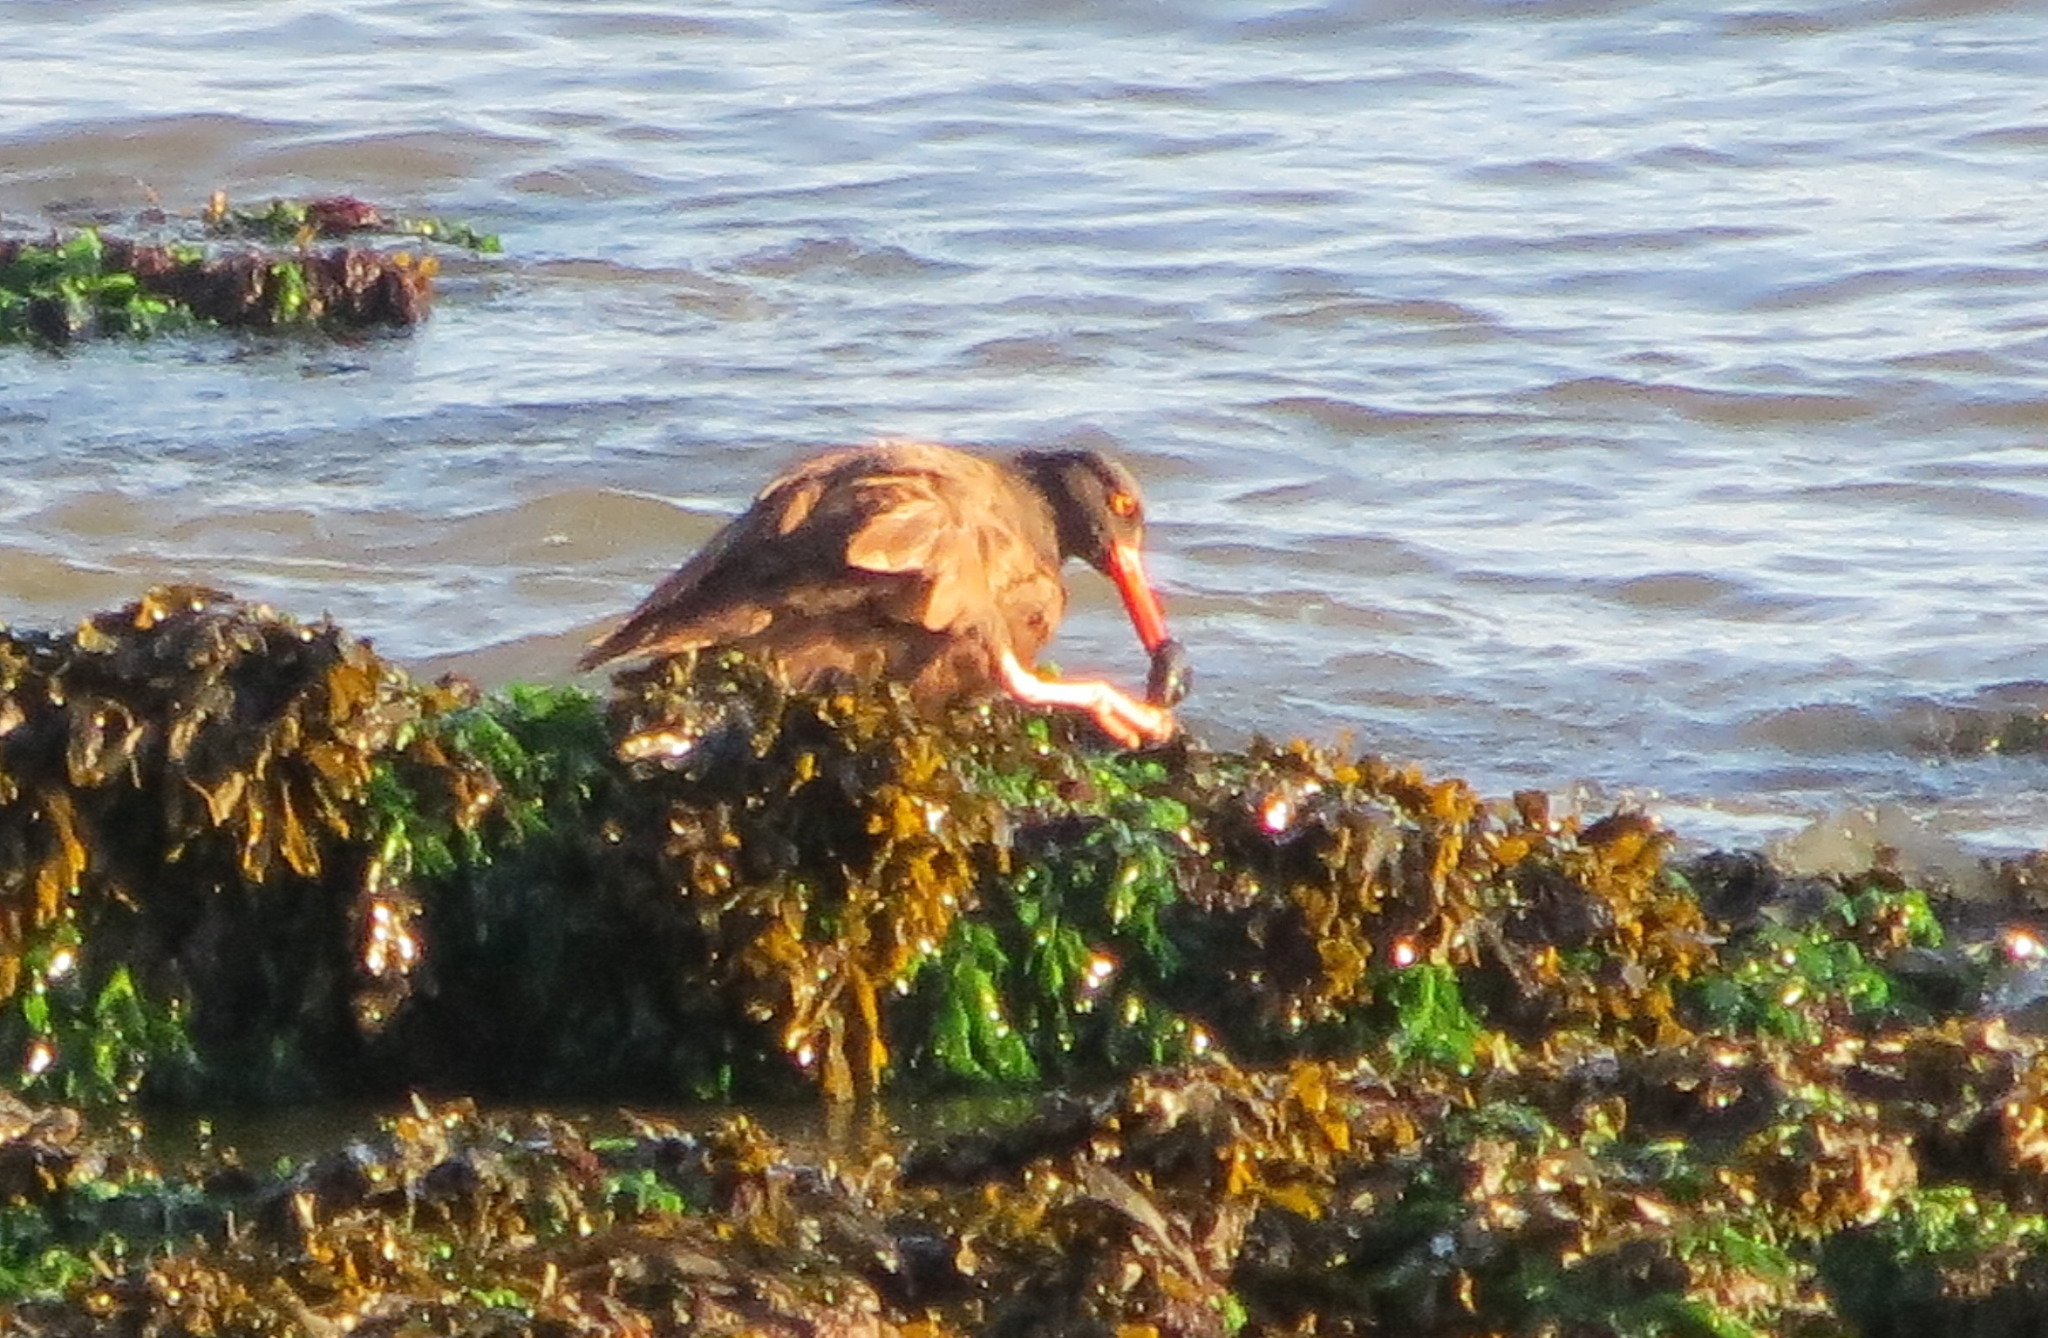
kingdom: Animalia
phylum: Chordata
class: Aves
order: Charadriiformes
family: Haematopodidae
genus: Haematopus
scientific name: Haematopus bachmani
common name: Black oystercatcher
